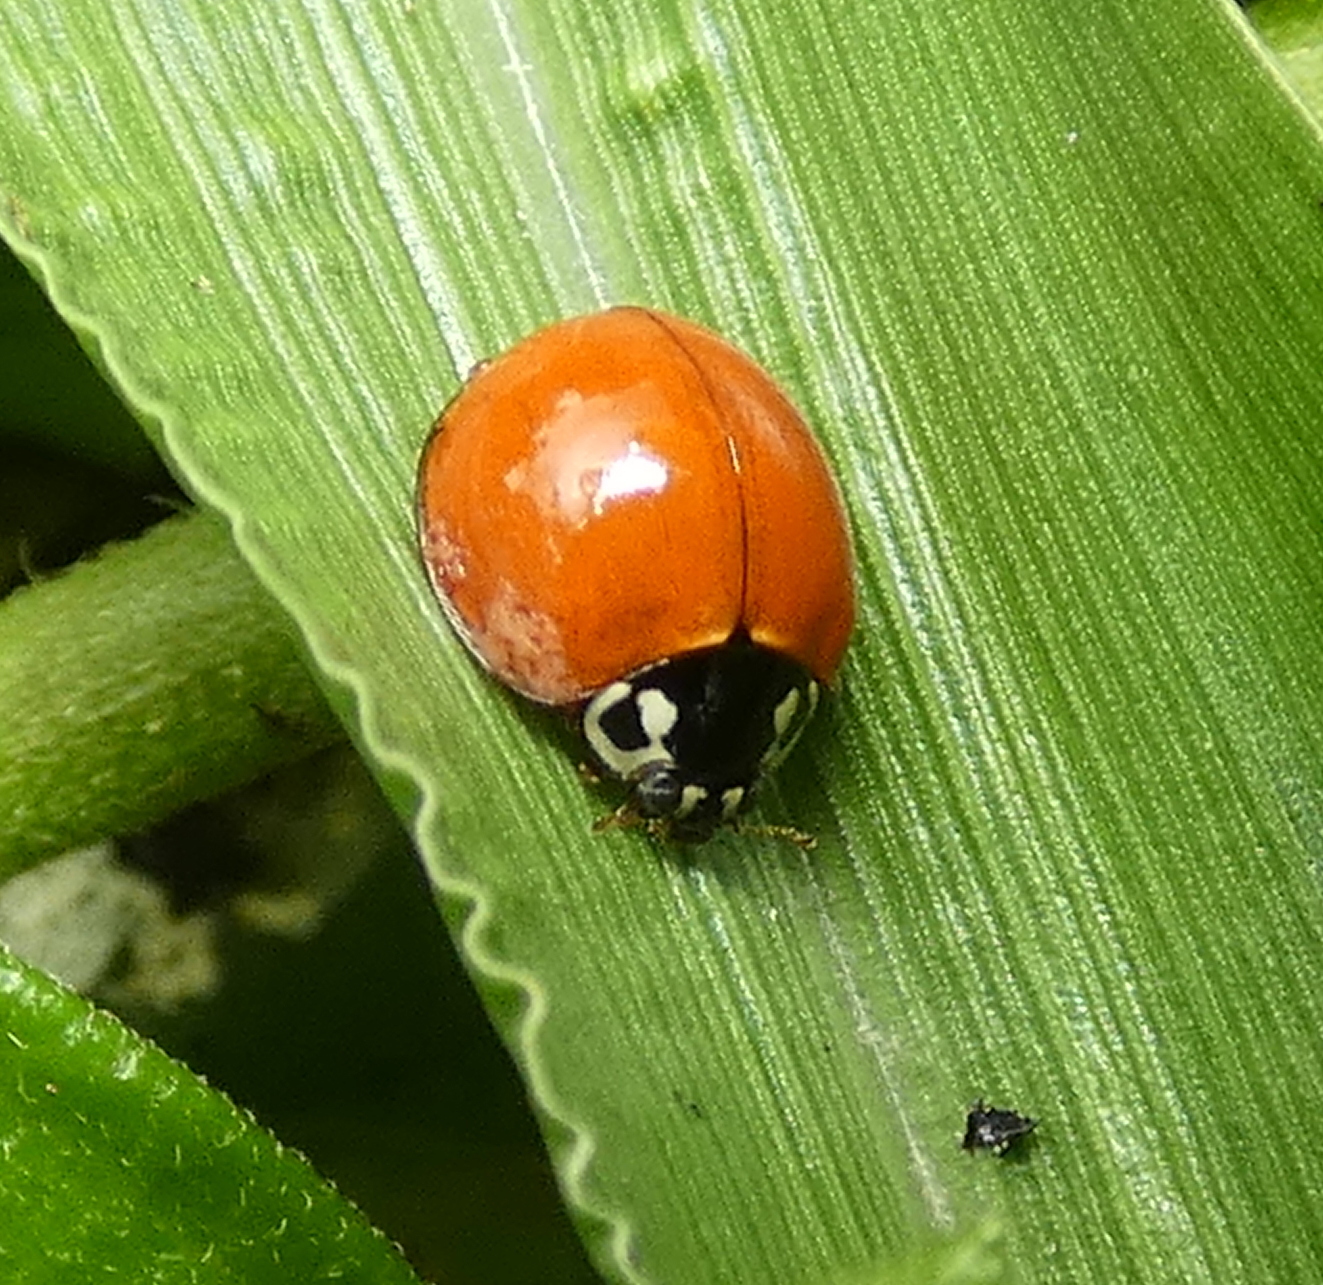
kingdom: Animalia
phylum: Arthropoda
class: Insecta
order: Coleoptera
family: Coccinellidae
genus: Cycloneda
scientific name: Cycloneda sanguinea
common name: Ladybird beetle
